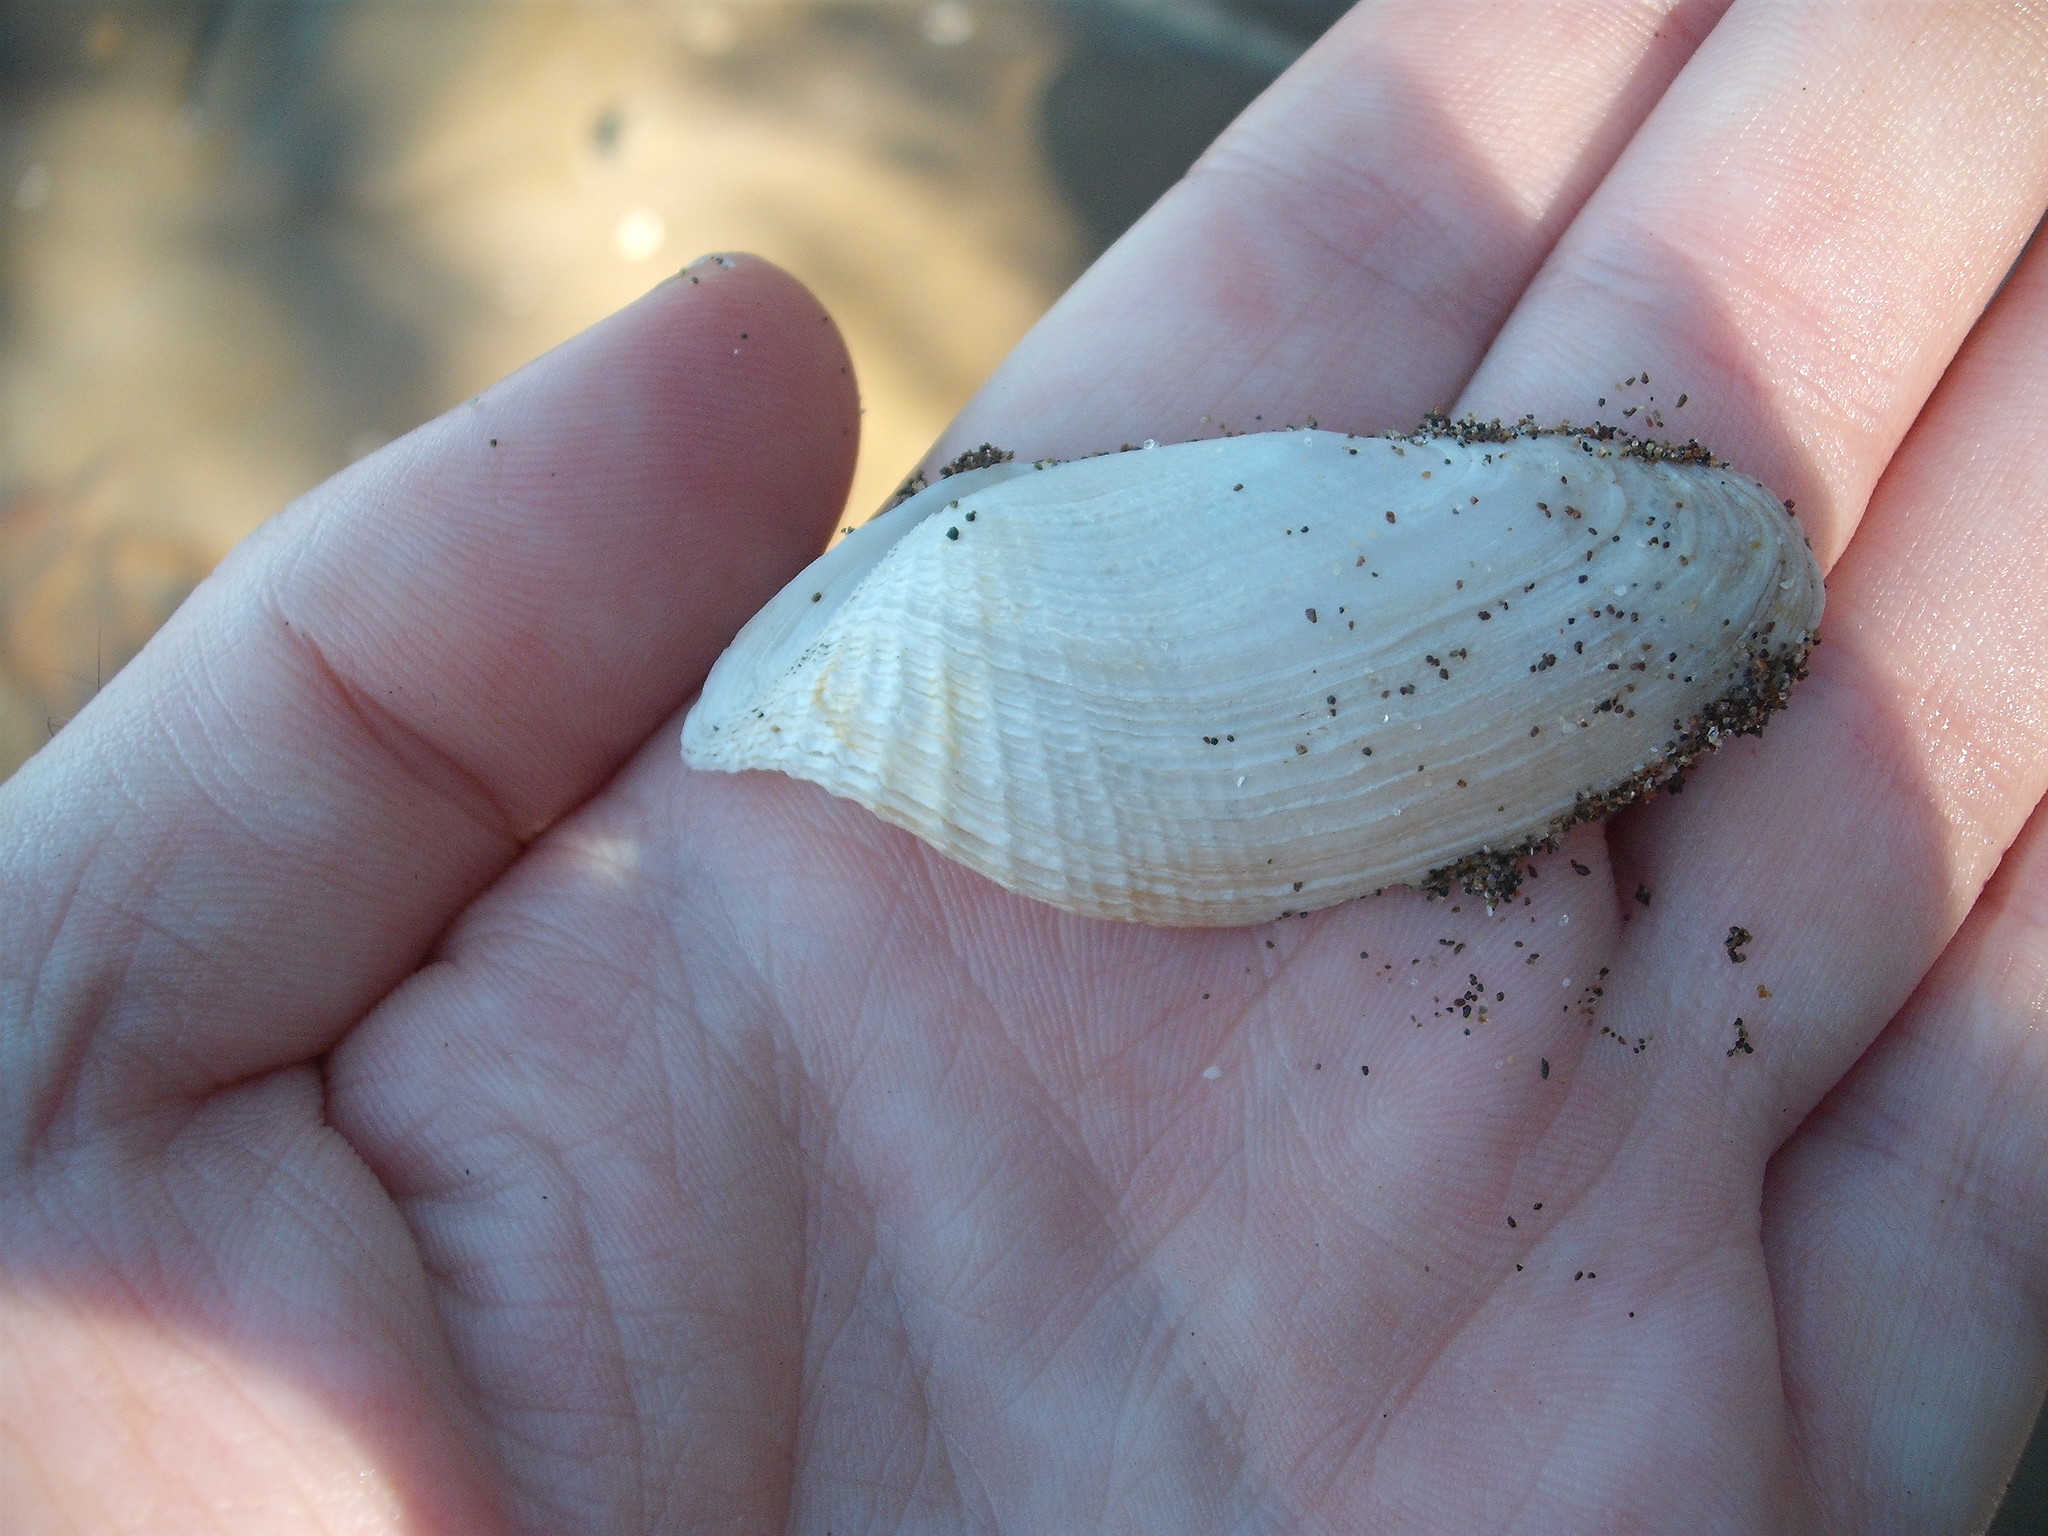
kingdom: Animalia
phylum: Mollusca
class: Bivalvia
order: Myida
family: Pholadidae
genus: Barnea
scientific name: Barnea similis
